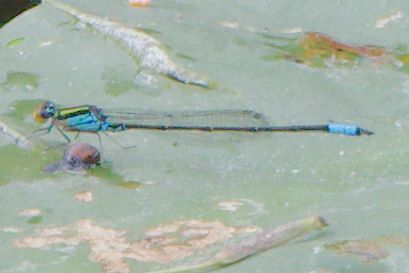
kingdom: Animalia
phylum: Arthropoda
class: Insecta
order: Odonata
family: Coenagrionidae
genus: Neoerythromma
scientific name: Neoerythromma cultellatum
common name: Caribbean yellowface
